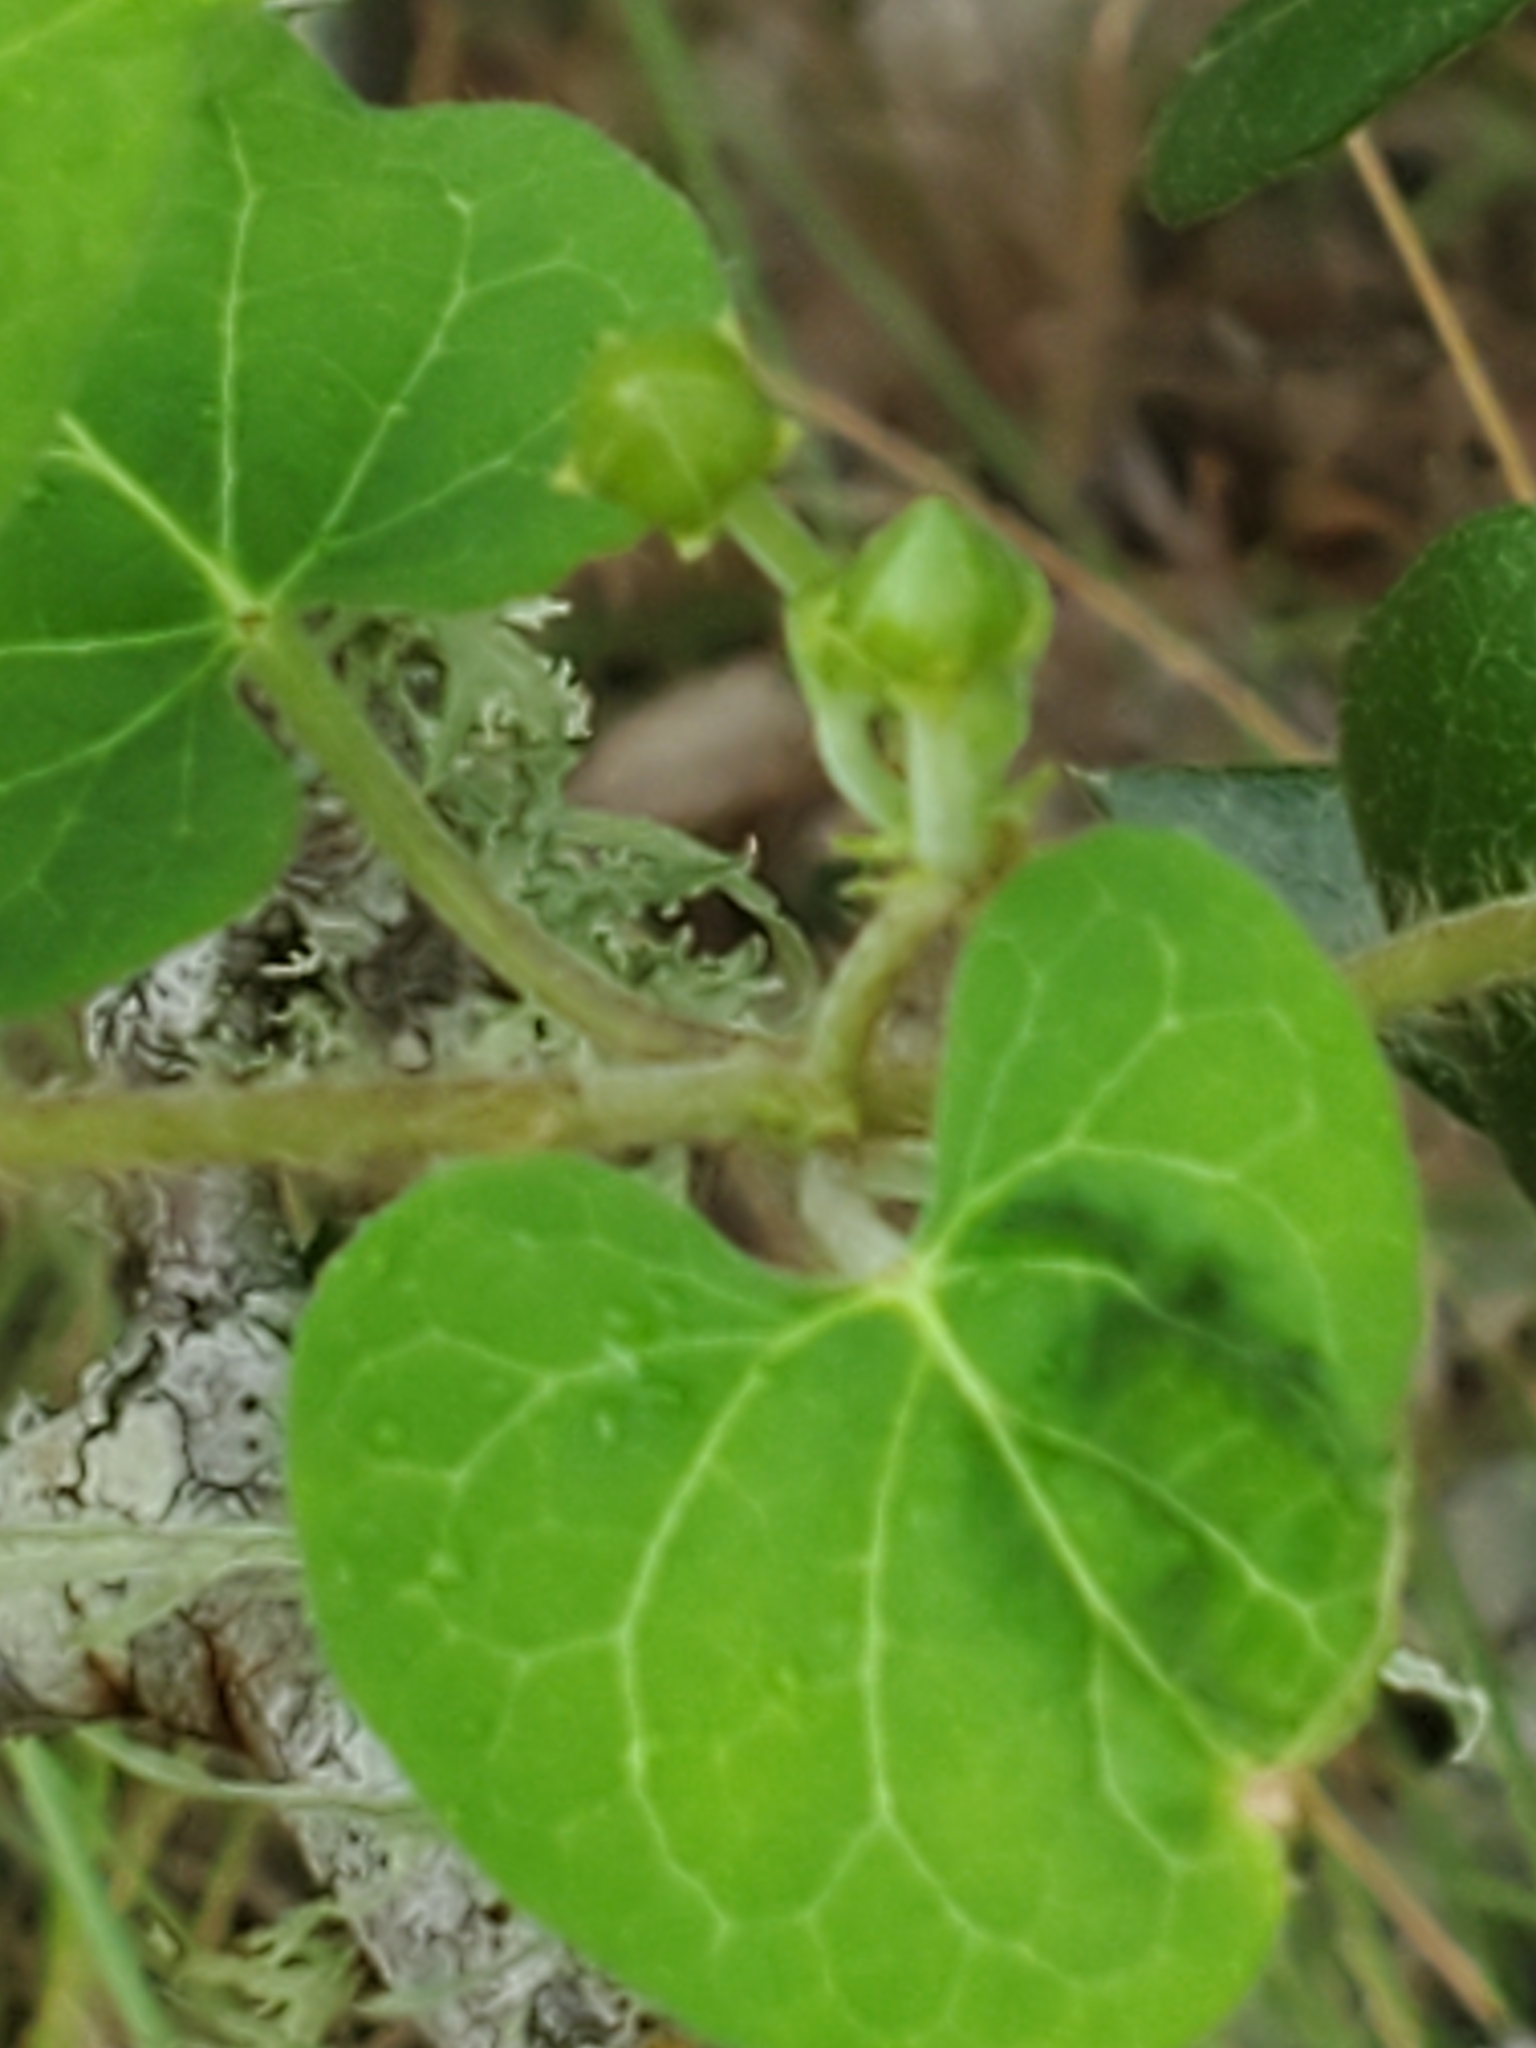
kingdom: Plantae
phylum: Tracheophyta
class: Magnoliopsida
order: Gentianales
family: Apocynaceae
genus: Matelea
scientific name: Matelea edwardsensis
